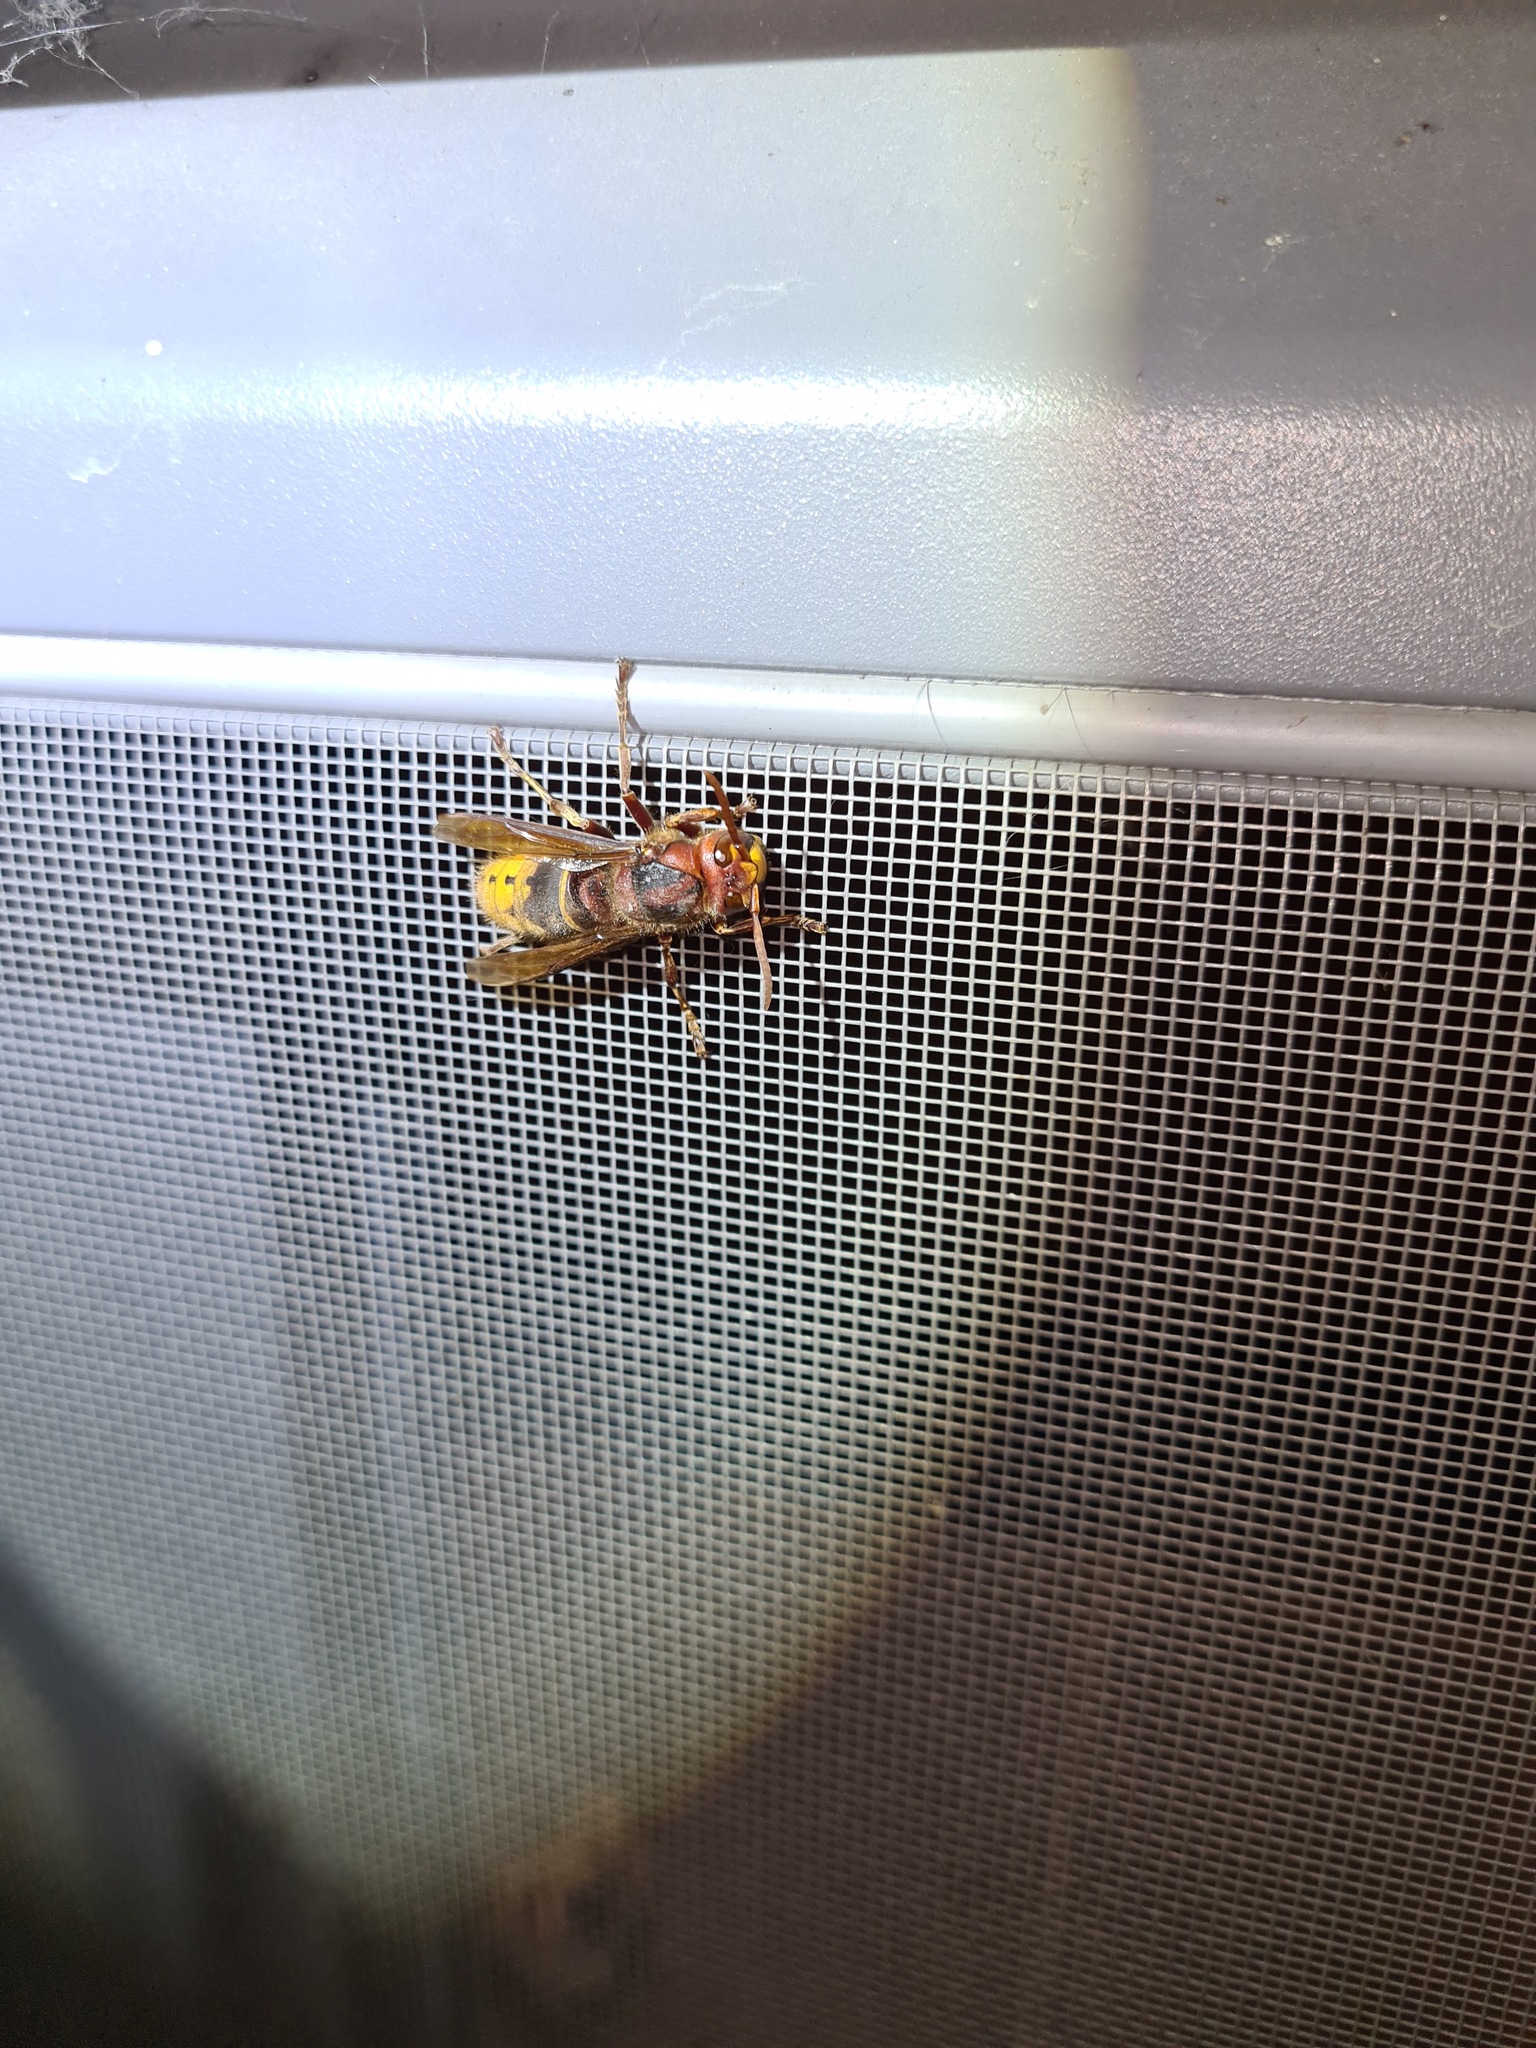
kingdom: Animalia
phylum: Arthropoda
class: Insecta
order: Hymenoptera
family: Vespidae
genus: Vespa
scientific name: Vespa crabro
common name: Hornet
